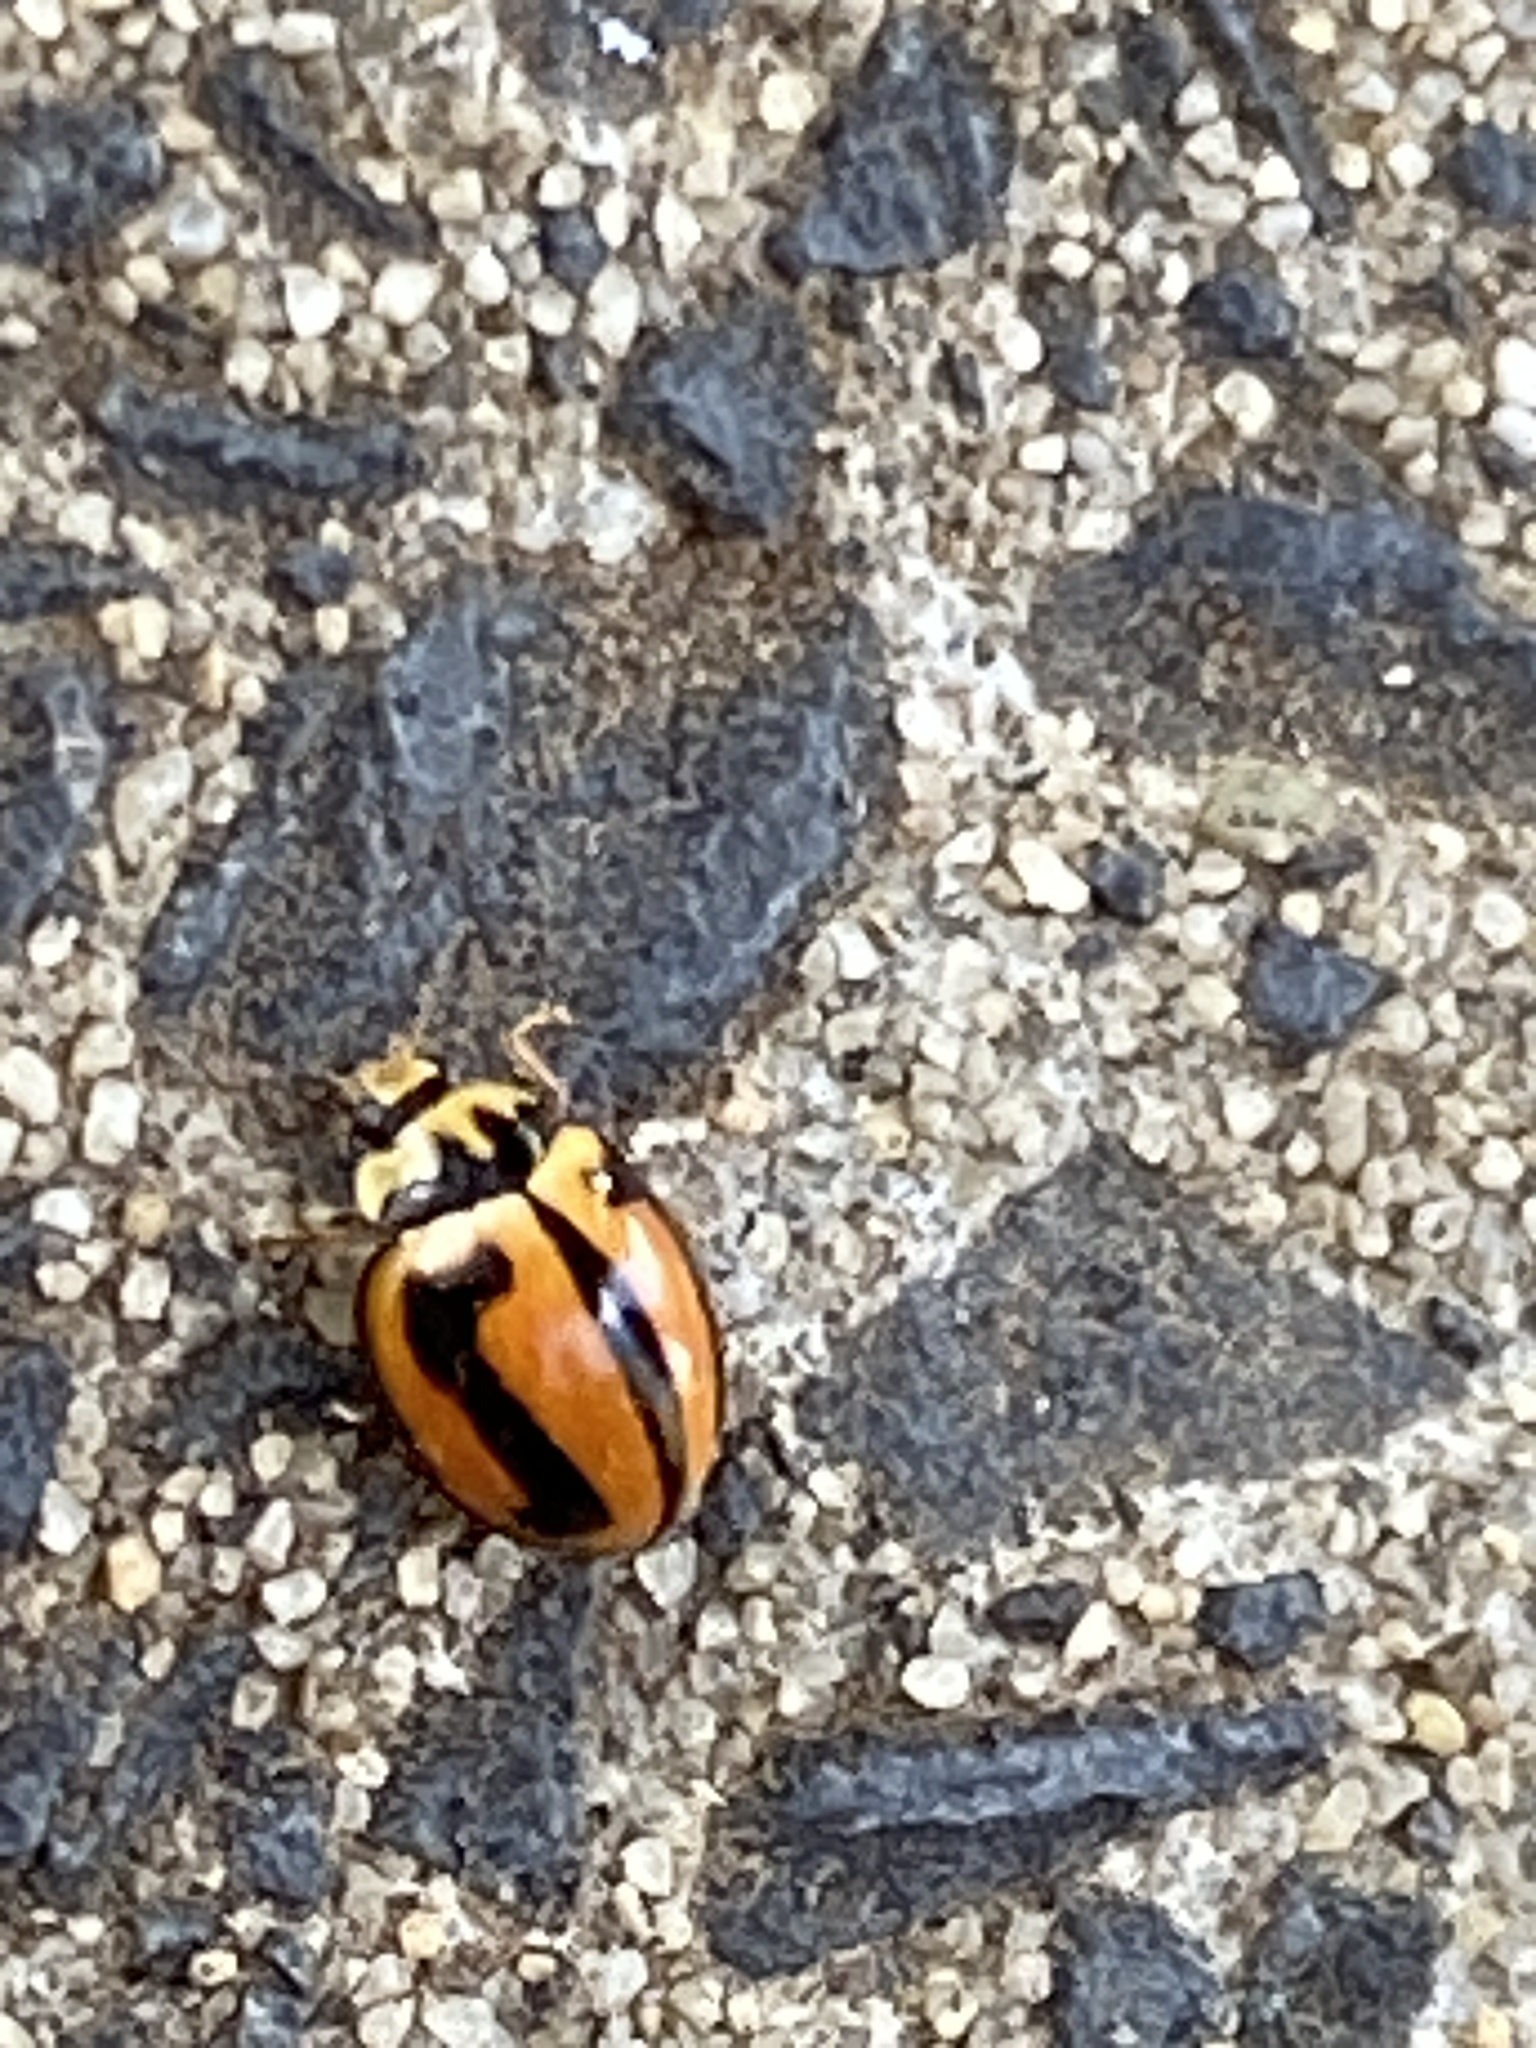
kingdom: Animalia
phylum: Arthropoda
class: Insecta
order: Coleoptera
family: Coccinellidae
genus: Micraspis
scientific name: Micraspis frenata
